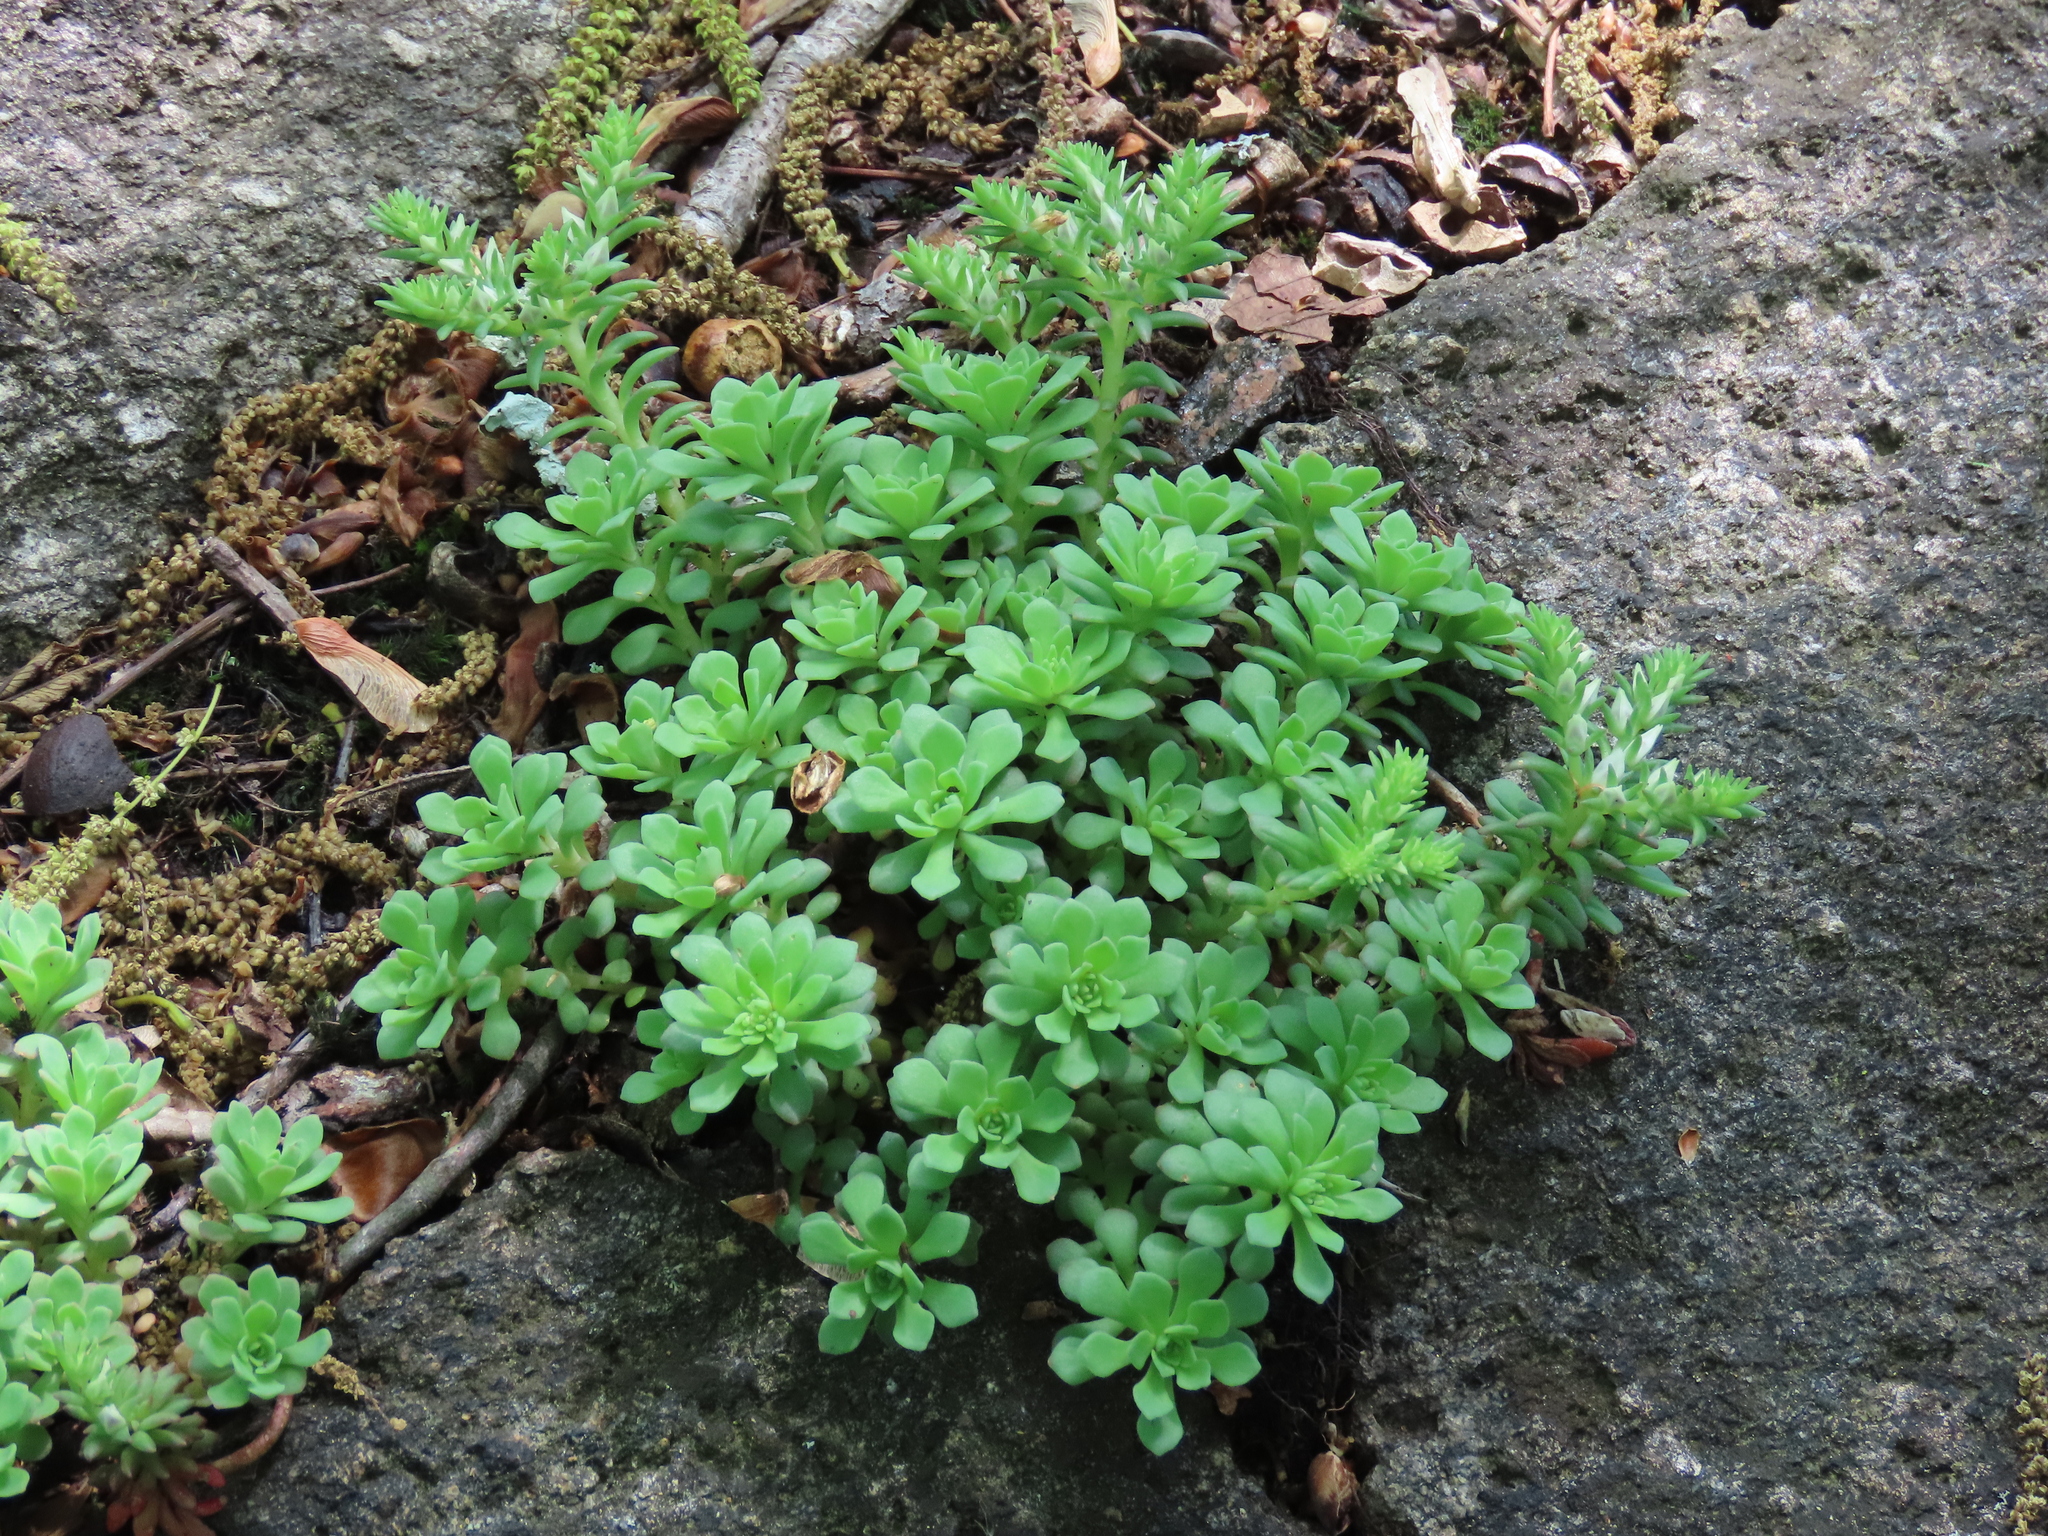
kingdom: Plantae
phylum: Tracheophyta
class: Magnoliopsida
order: Saxifragales
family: Crassulaceae
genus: Sedum
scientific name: Sedum glaucophyllum
